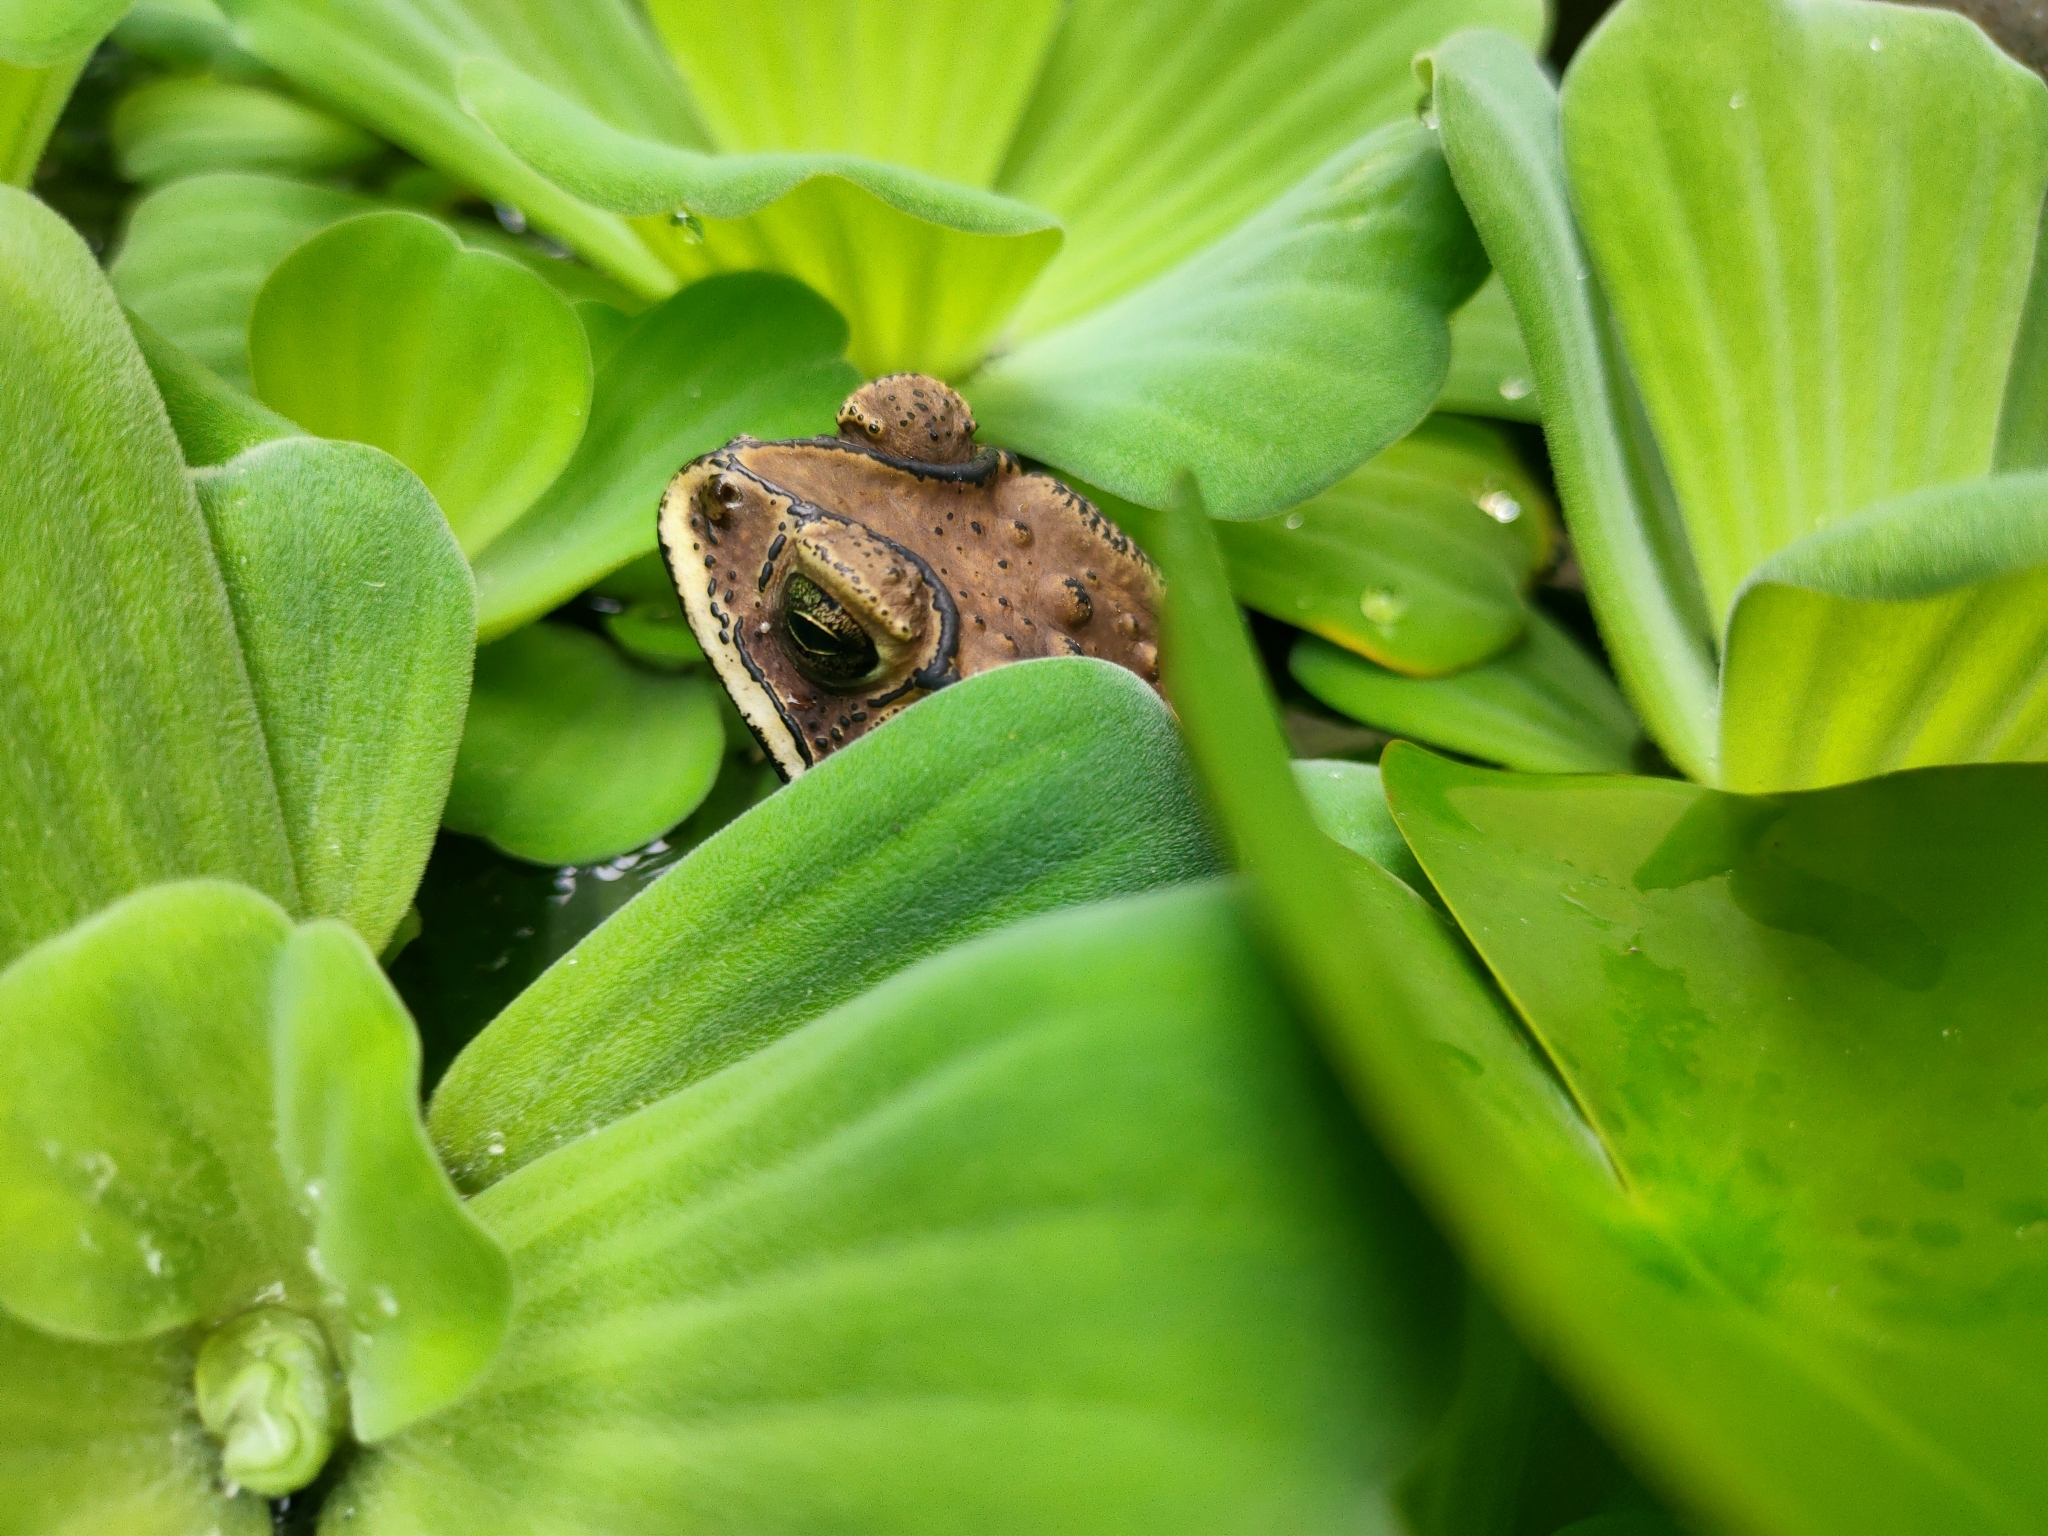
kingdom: Animalia
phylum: Chordata
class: Amphibia
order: Anura
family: Bufonidae
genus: Duttaphrynus
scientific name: Duttaphrynus melanostictus
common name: Common sunda toad
